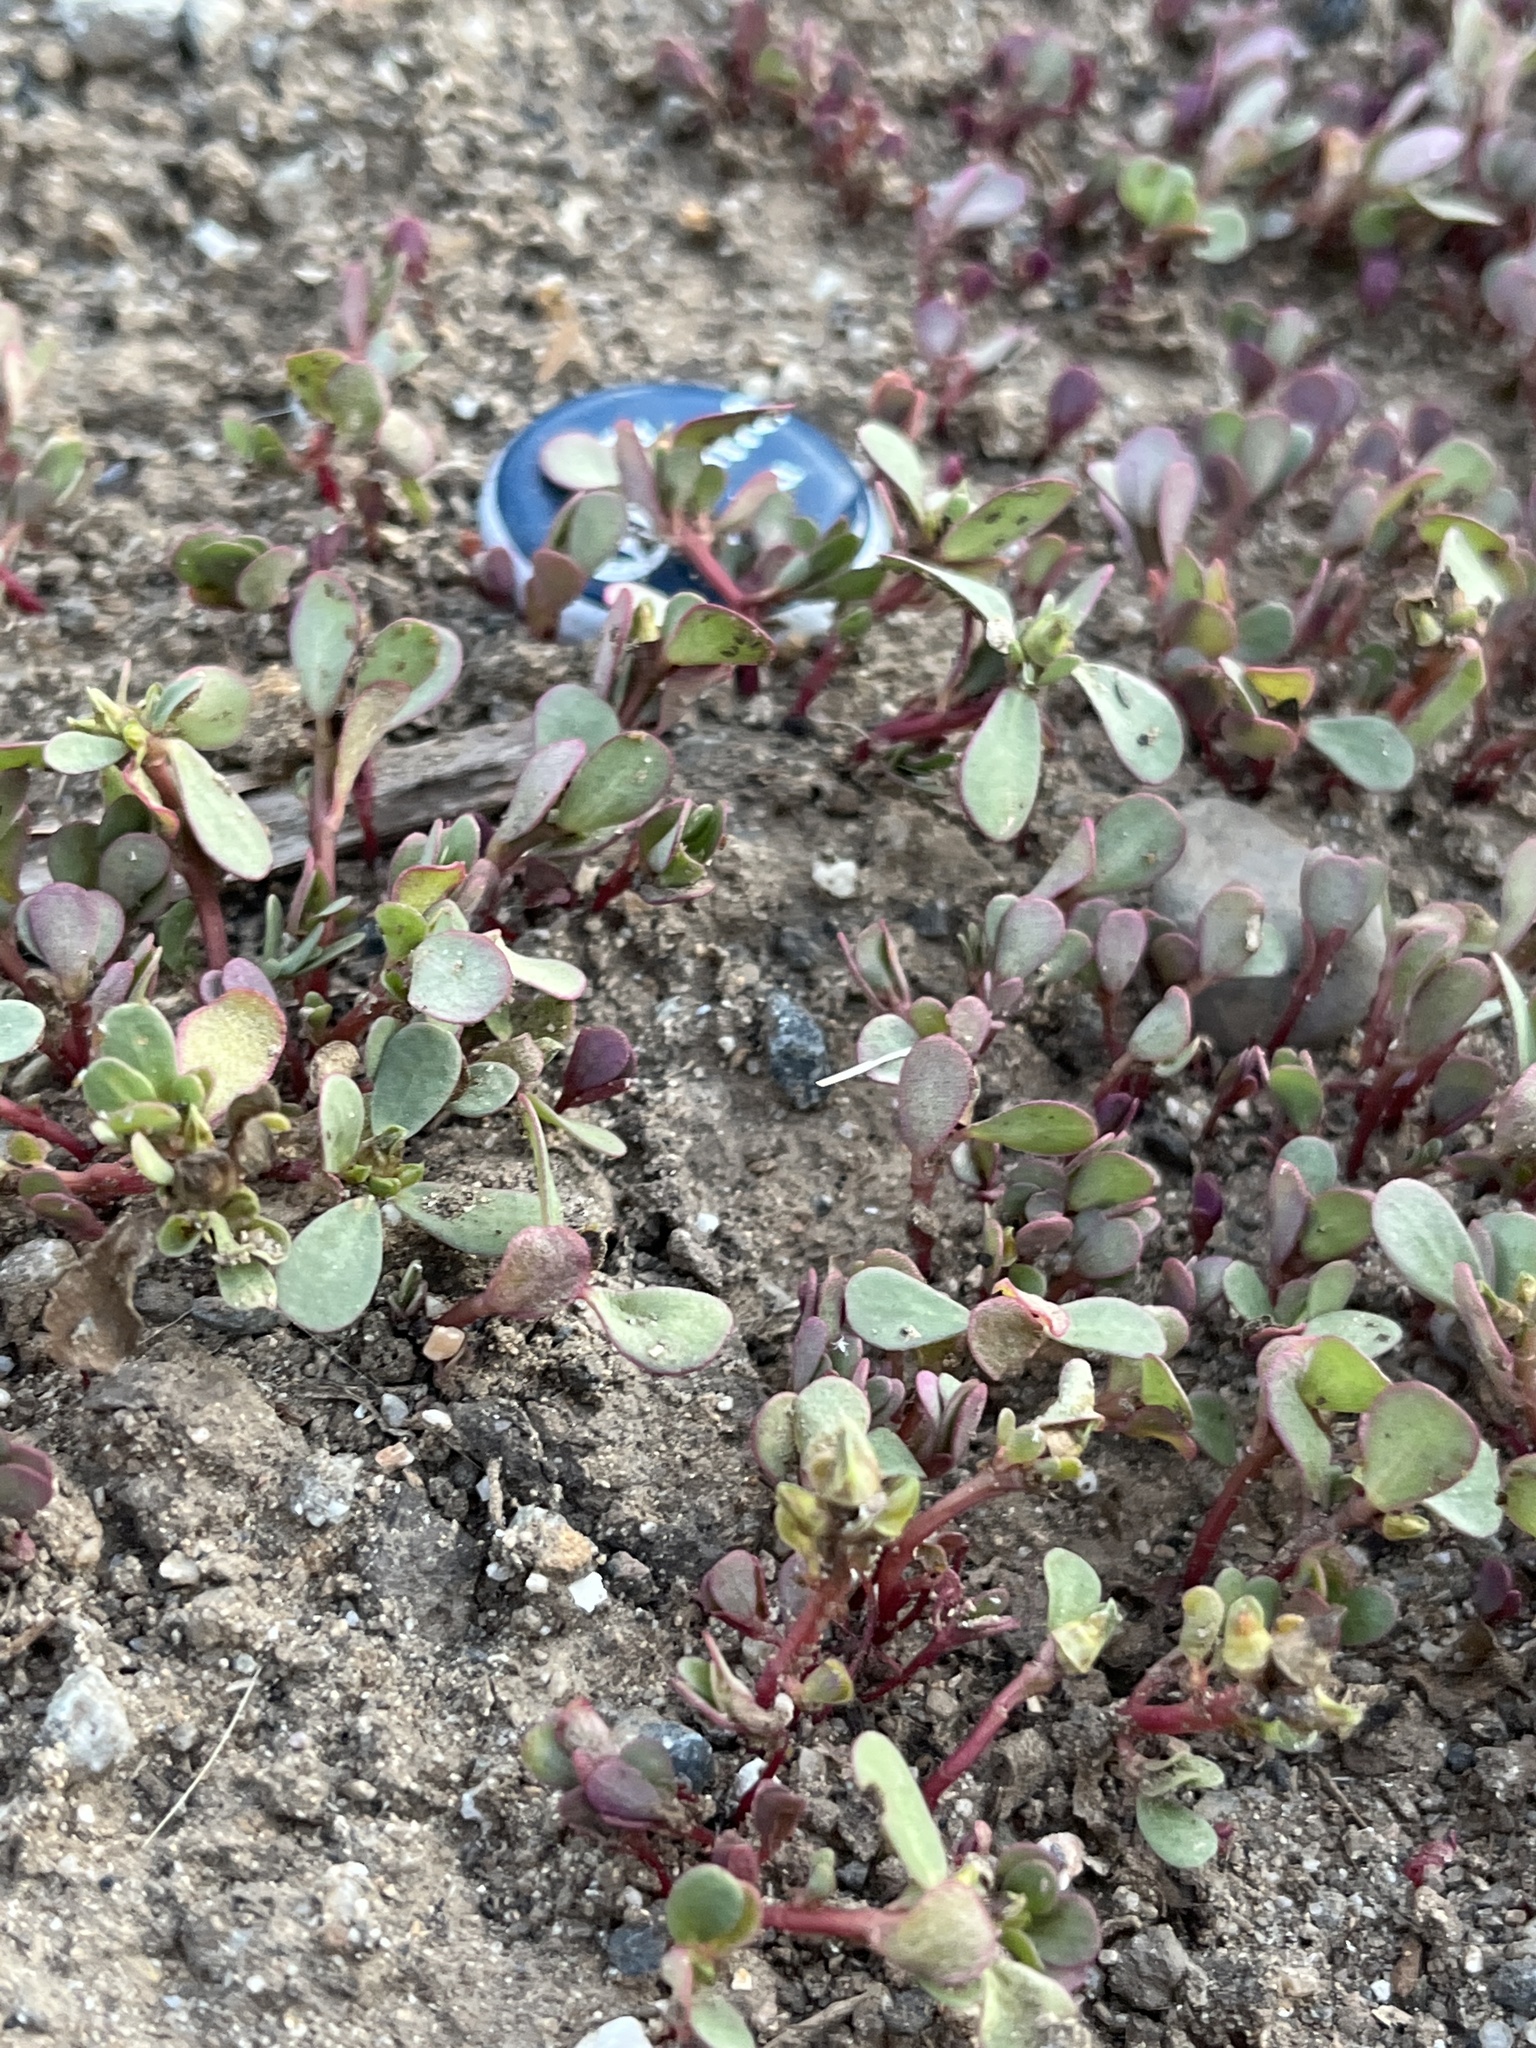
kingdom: Plantae
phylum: Tracheophyta
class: Magnoliopsida
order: Caryophyllales
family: Portulacaceae
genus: Portulaca
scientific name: Portulaca oleracea
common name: Common purslane
